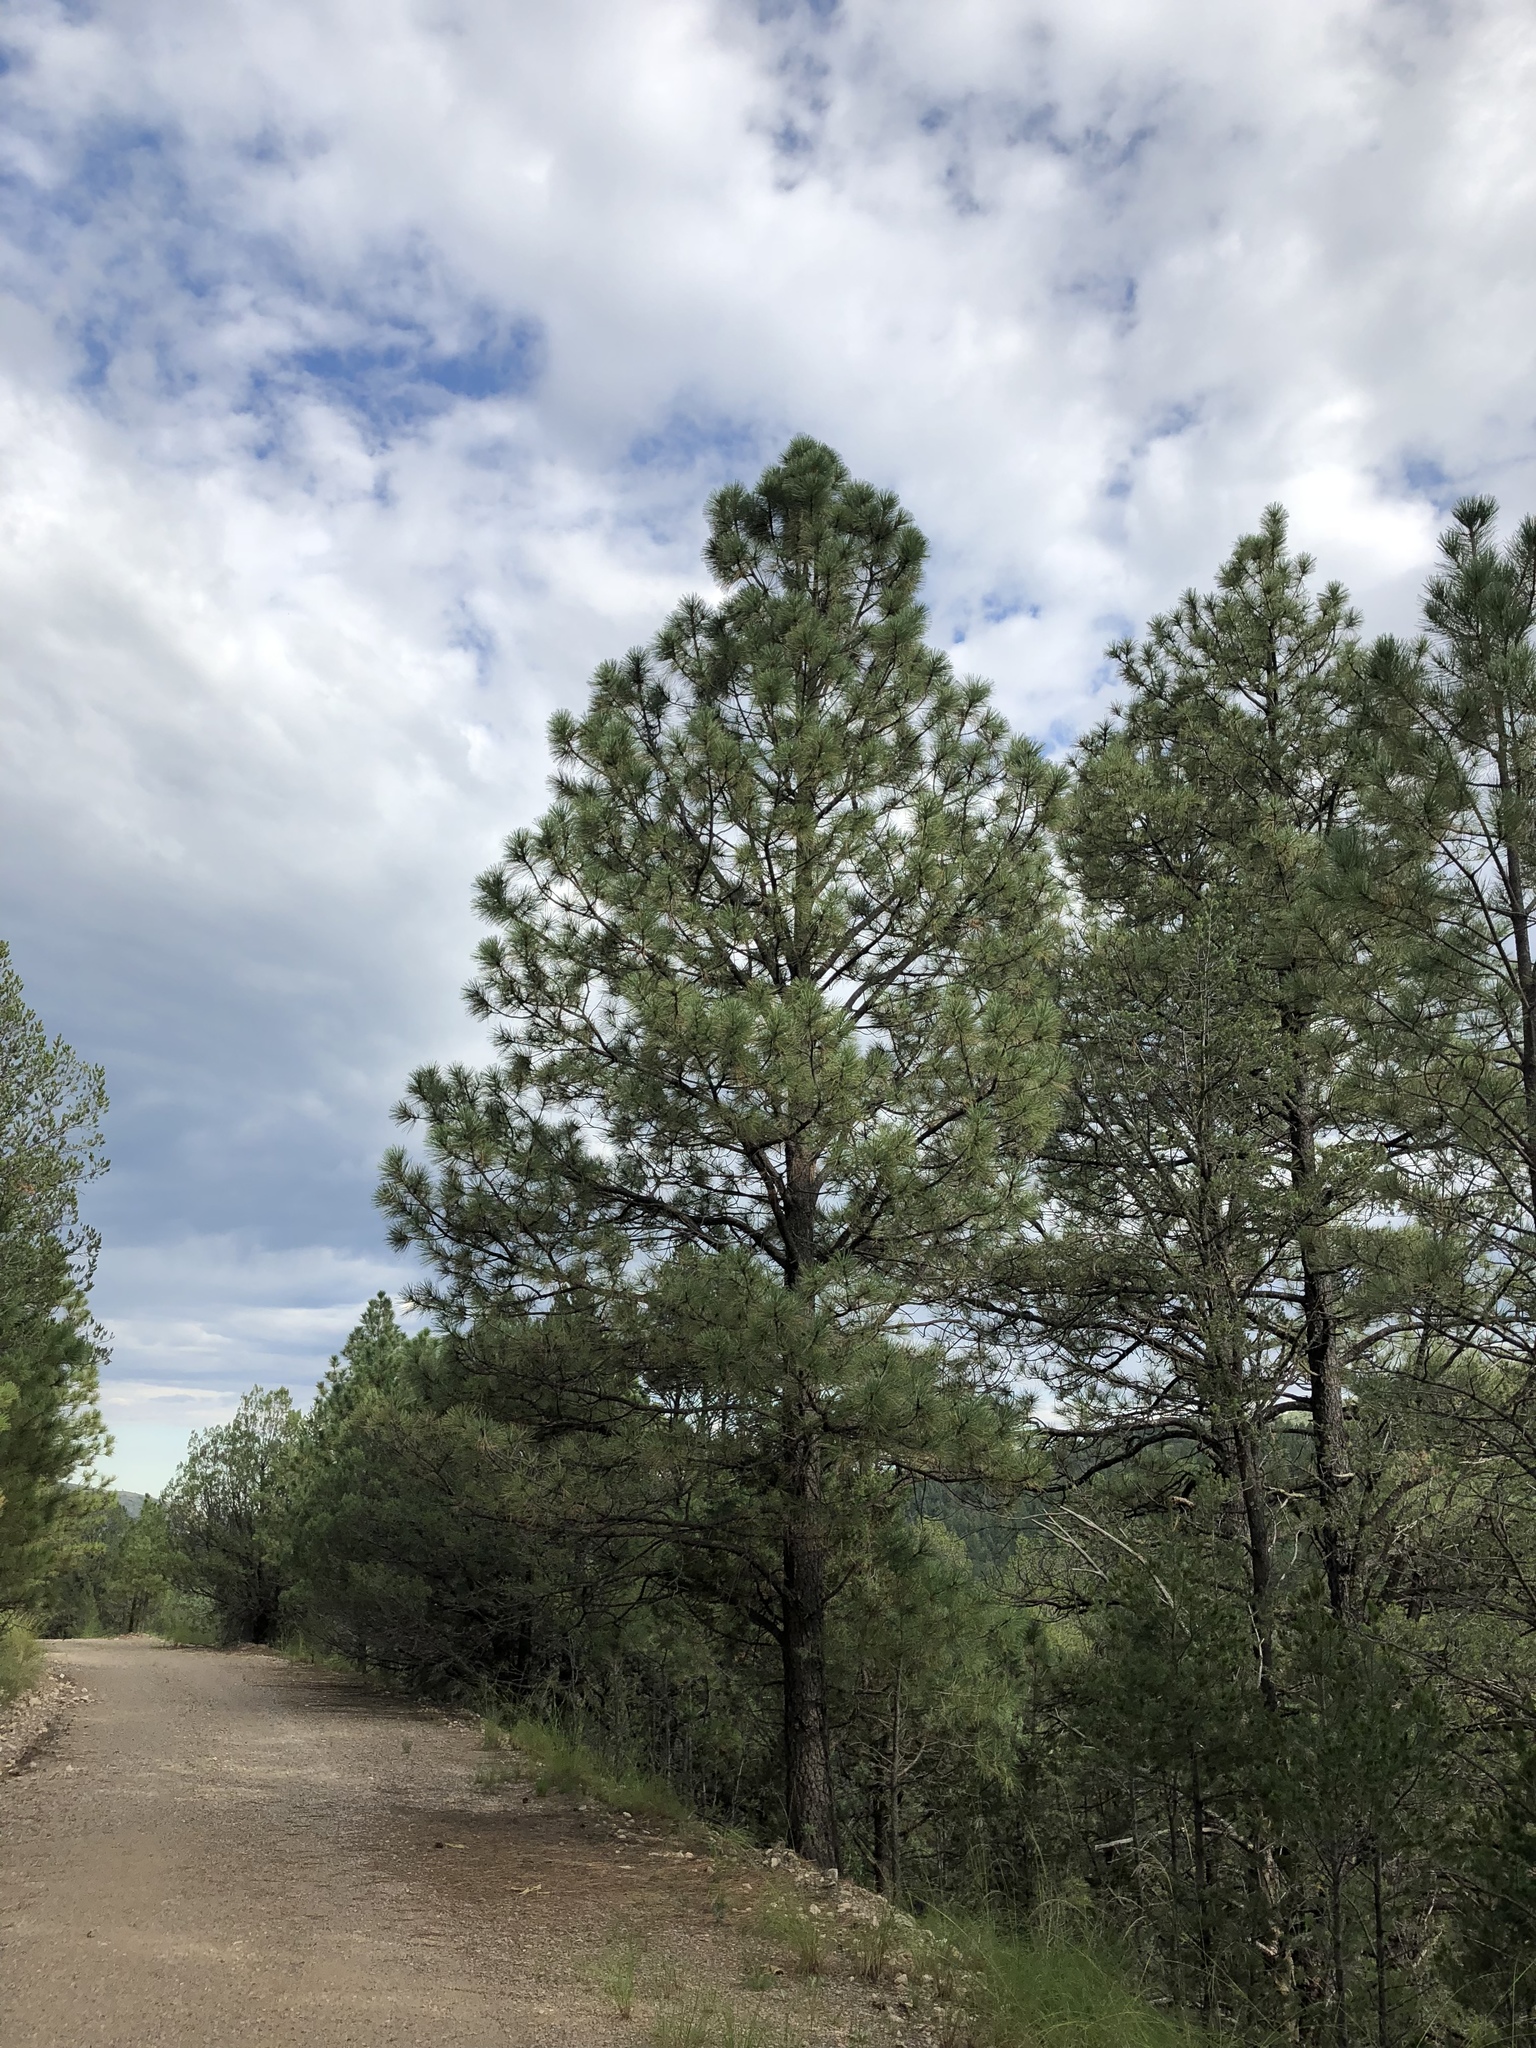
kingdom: Plantae
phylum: Tracheophyta
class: Pinopsida
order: Pinales
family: Pinaceae
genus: Pinus
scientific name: Pinus ponderosa
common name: Western yellow-pine
